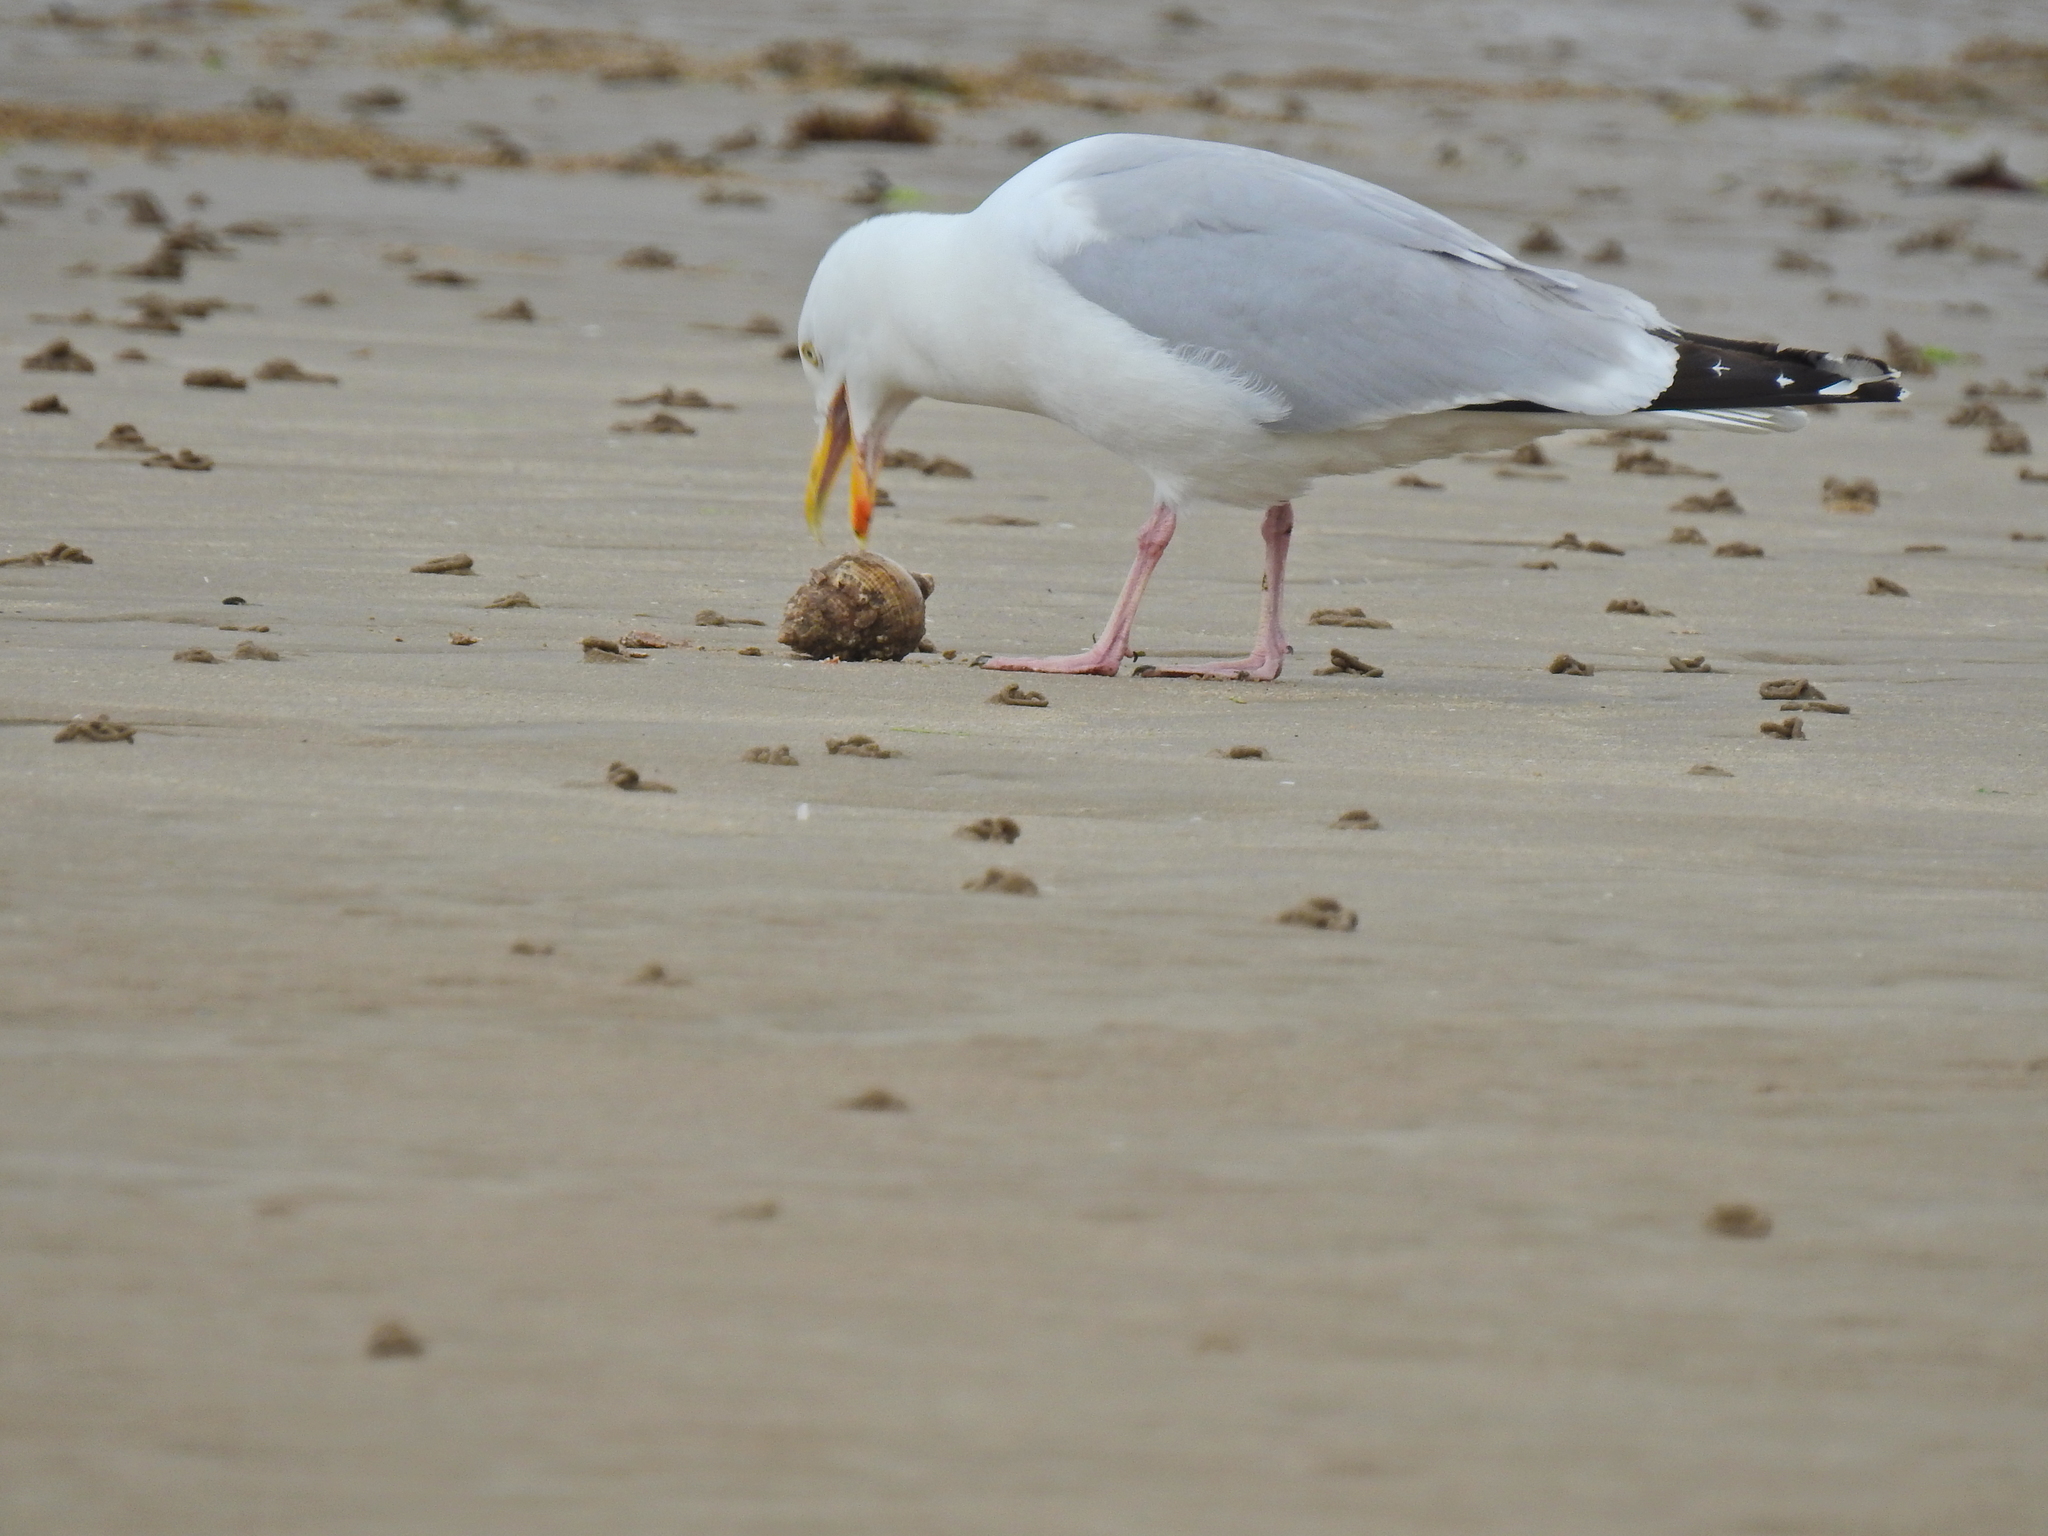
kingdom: Animalia
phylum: Chordata
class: Aves
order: Charadriiformes
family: Laridae
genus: Larus
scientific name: Larus argentatus
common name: Herring gull
